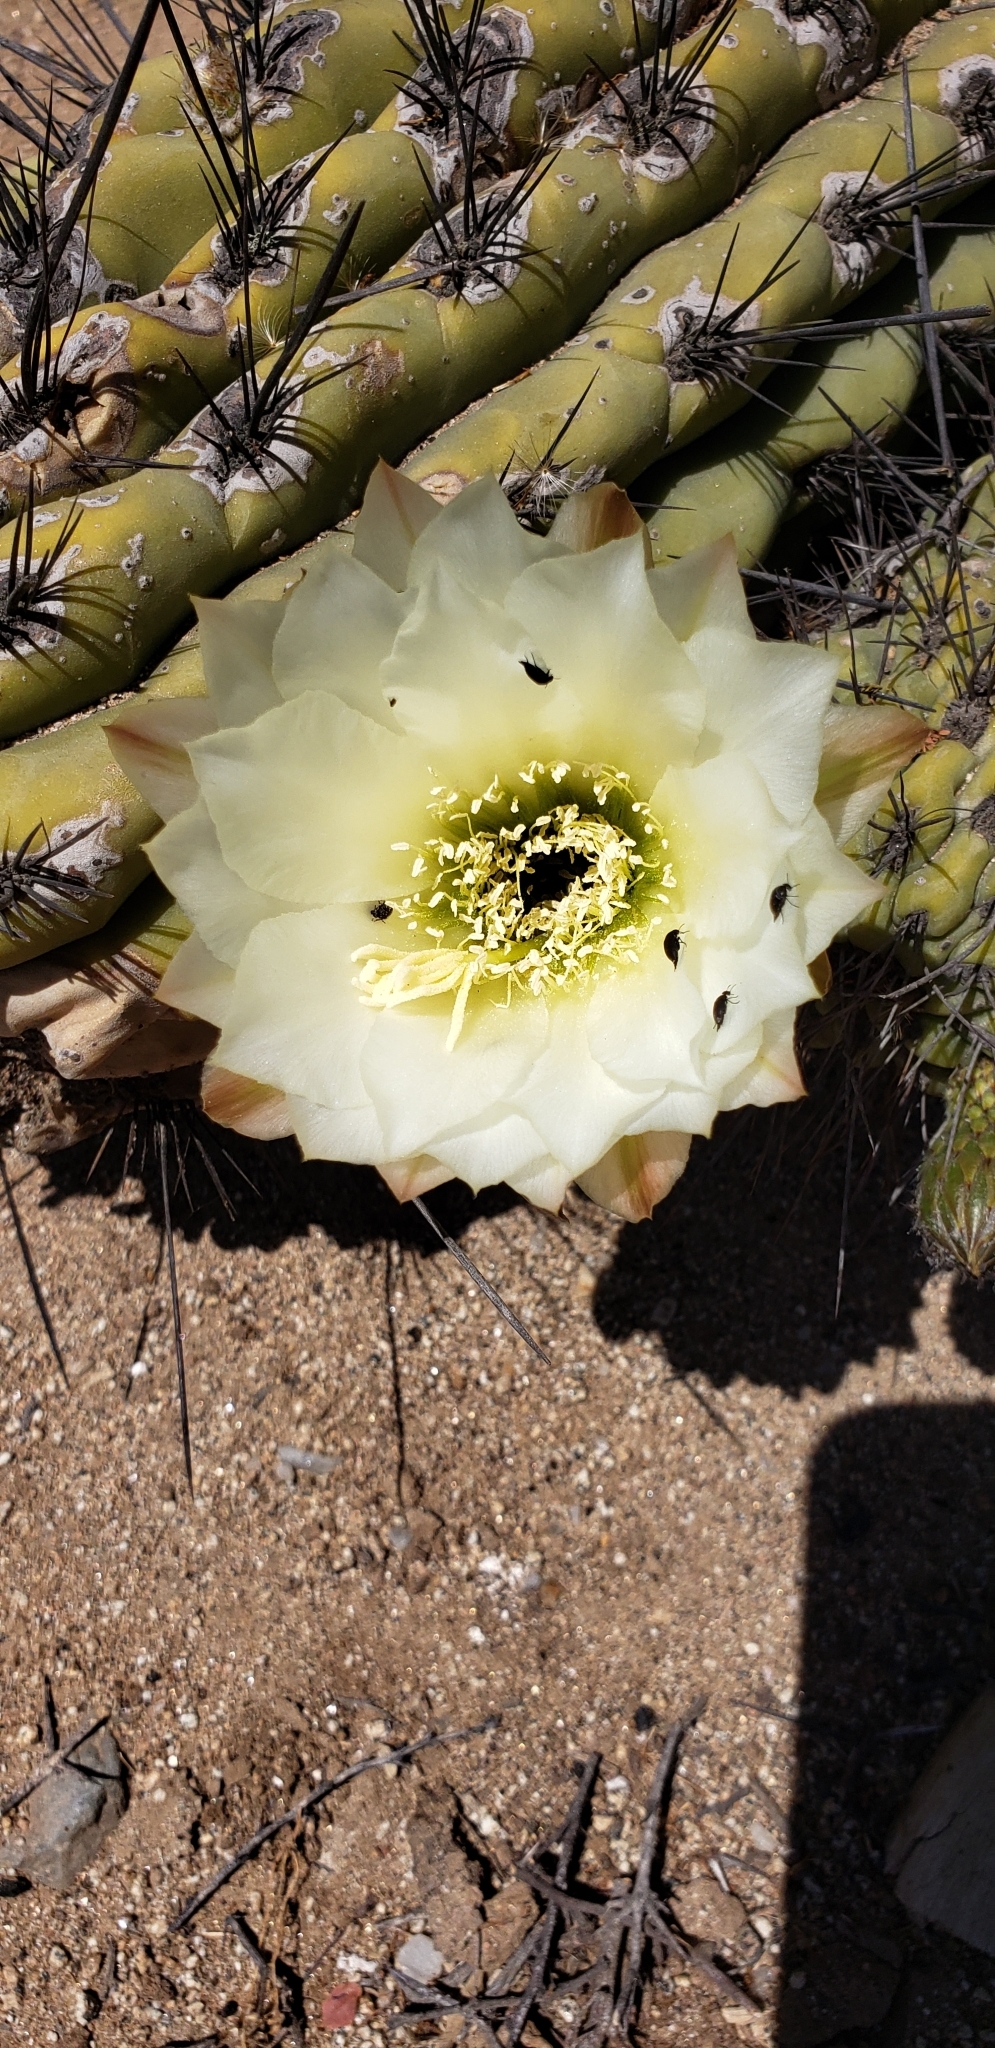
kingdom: Plantae
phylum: Tracheophyta
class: Magnoliopsida
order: Caryophyllales
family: Cactaceae
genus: Leucostele
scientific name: Leucostele chiloensis
